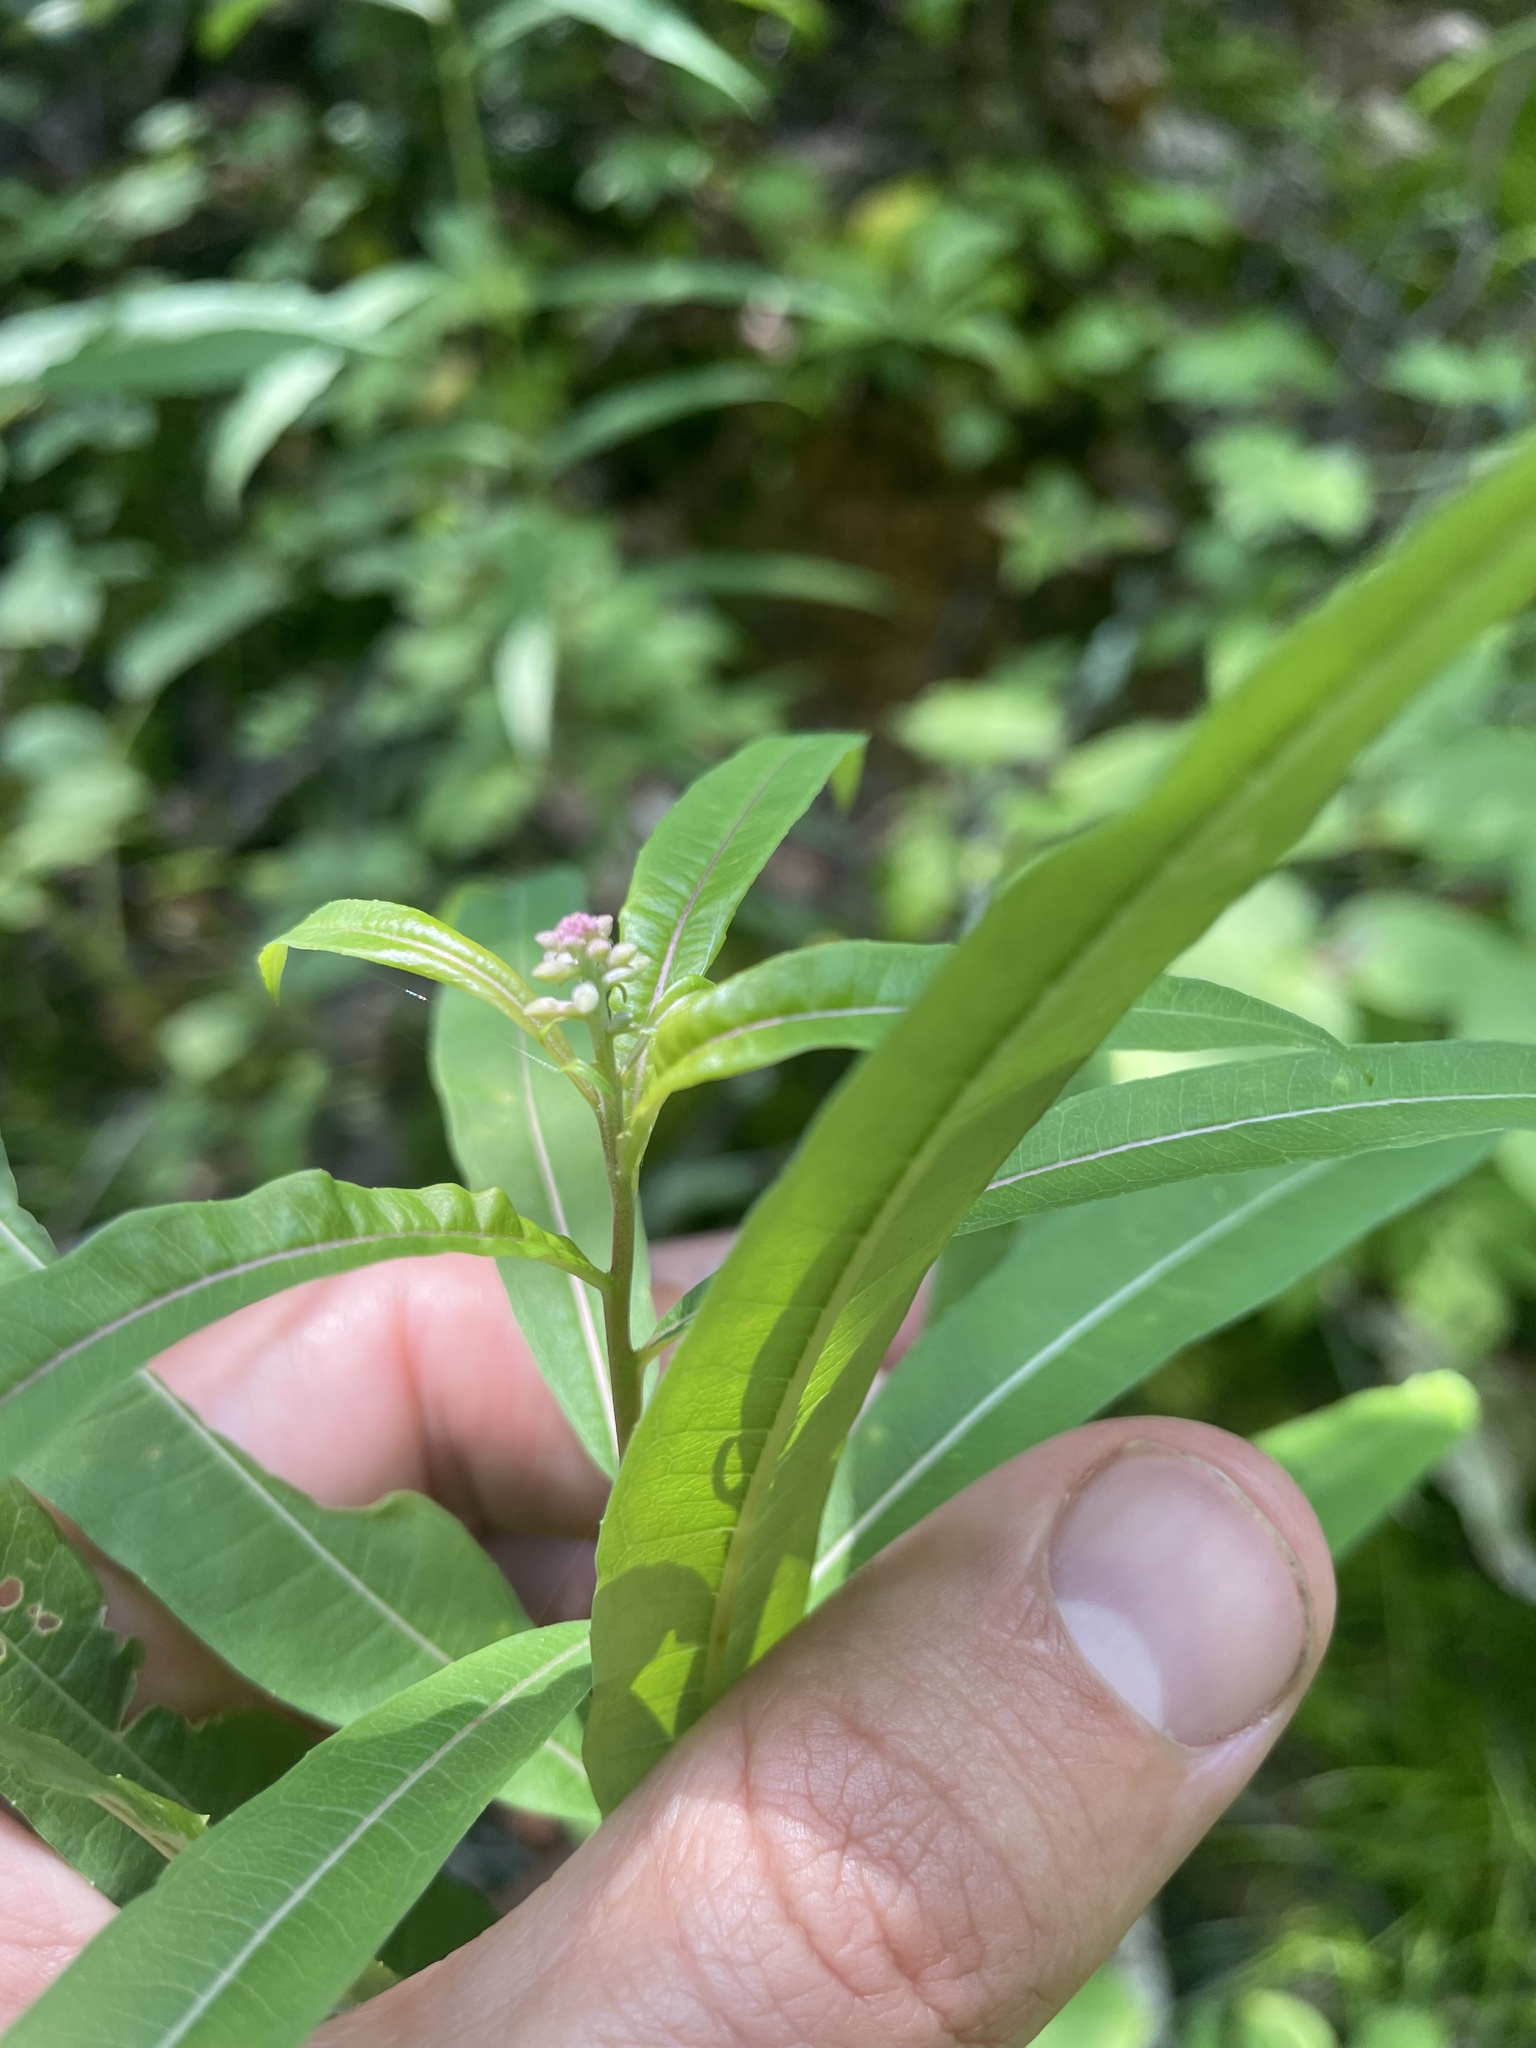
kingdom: Plantae
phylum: Tracheophyta
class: Magnoliopsida
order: Myrtales
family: Onagraceae
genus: Chamaenerion
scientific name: Chamaenerion angustifolium
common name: Fireweed
